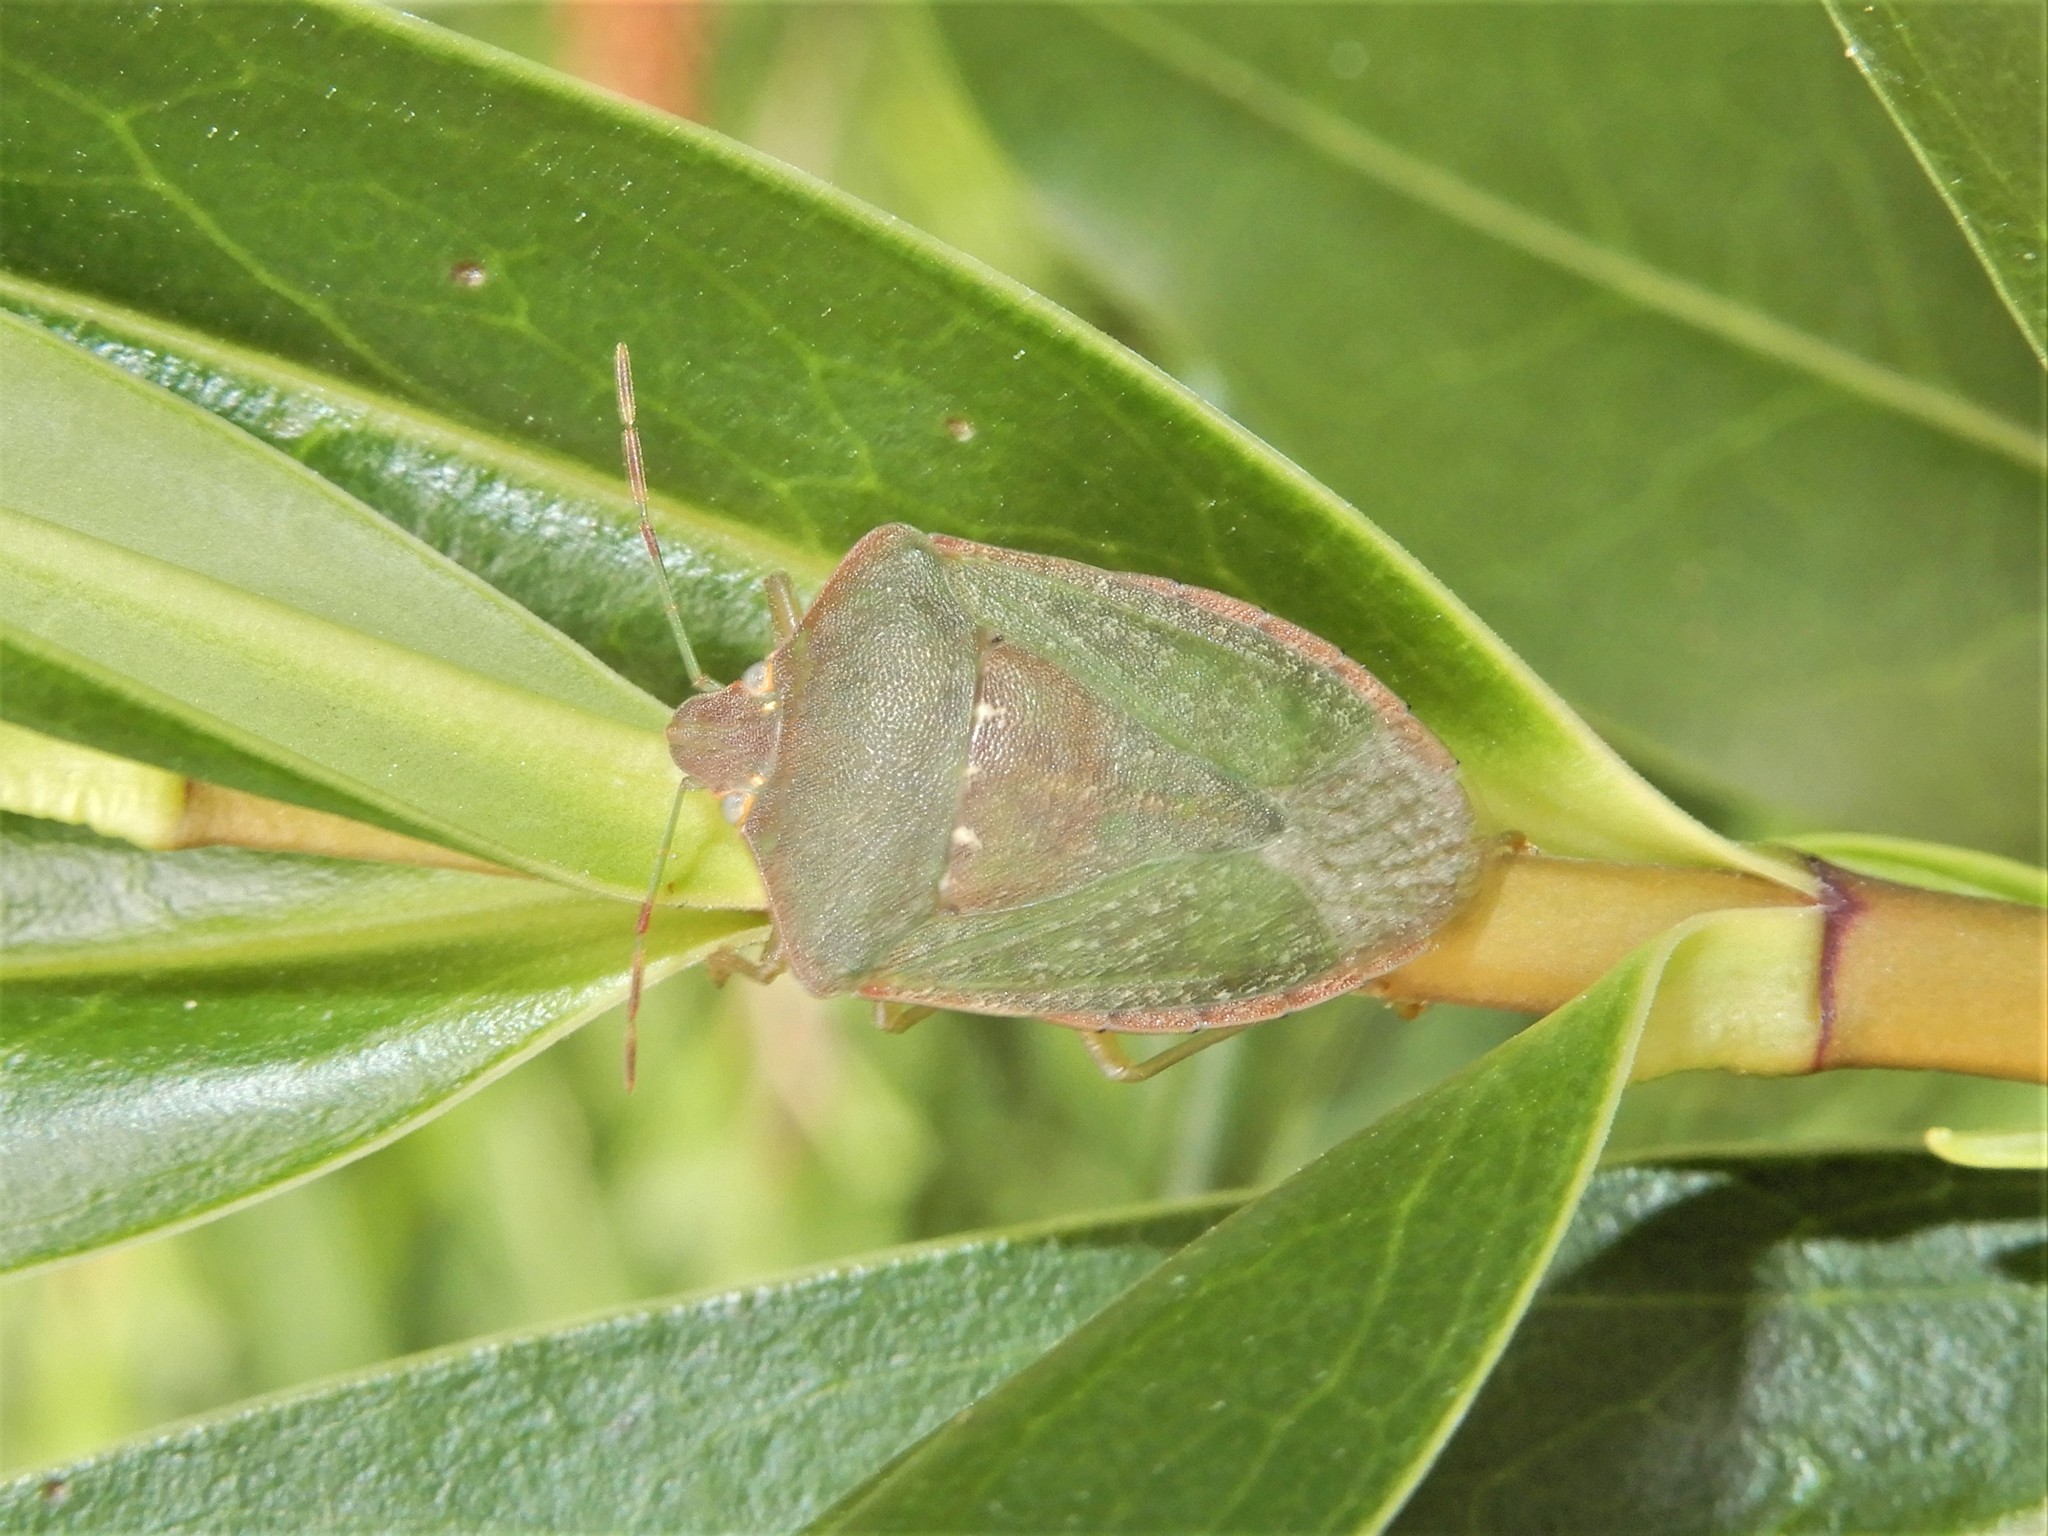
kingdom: Animalia
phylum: Arthropoda
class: Insecta
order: Hemiptera
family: Pentatomidae
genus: Nezara
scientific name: Nezara viridula
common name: Southern green stink bug
